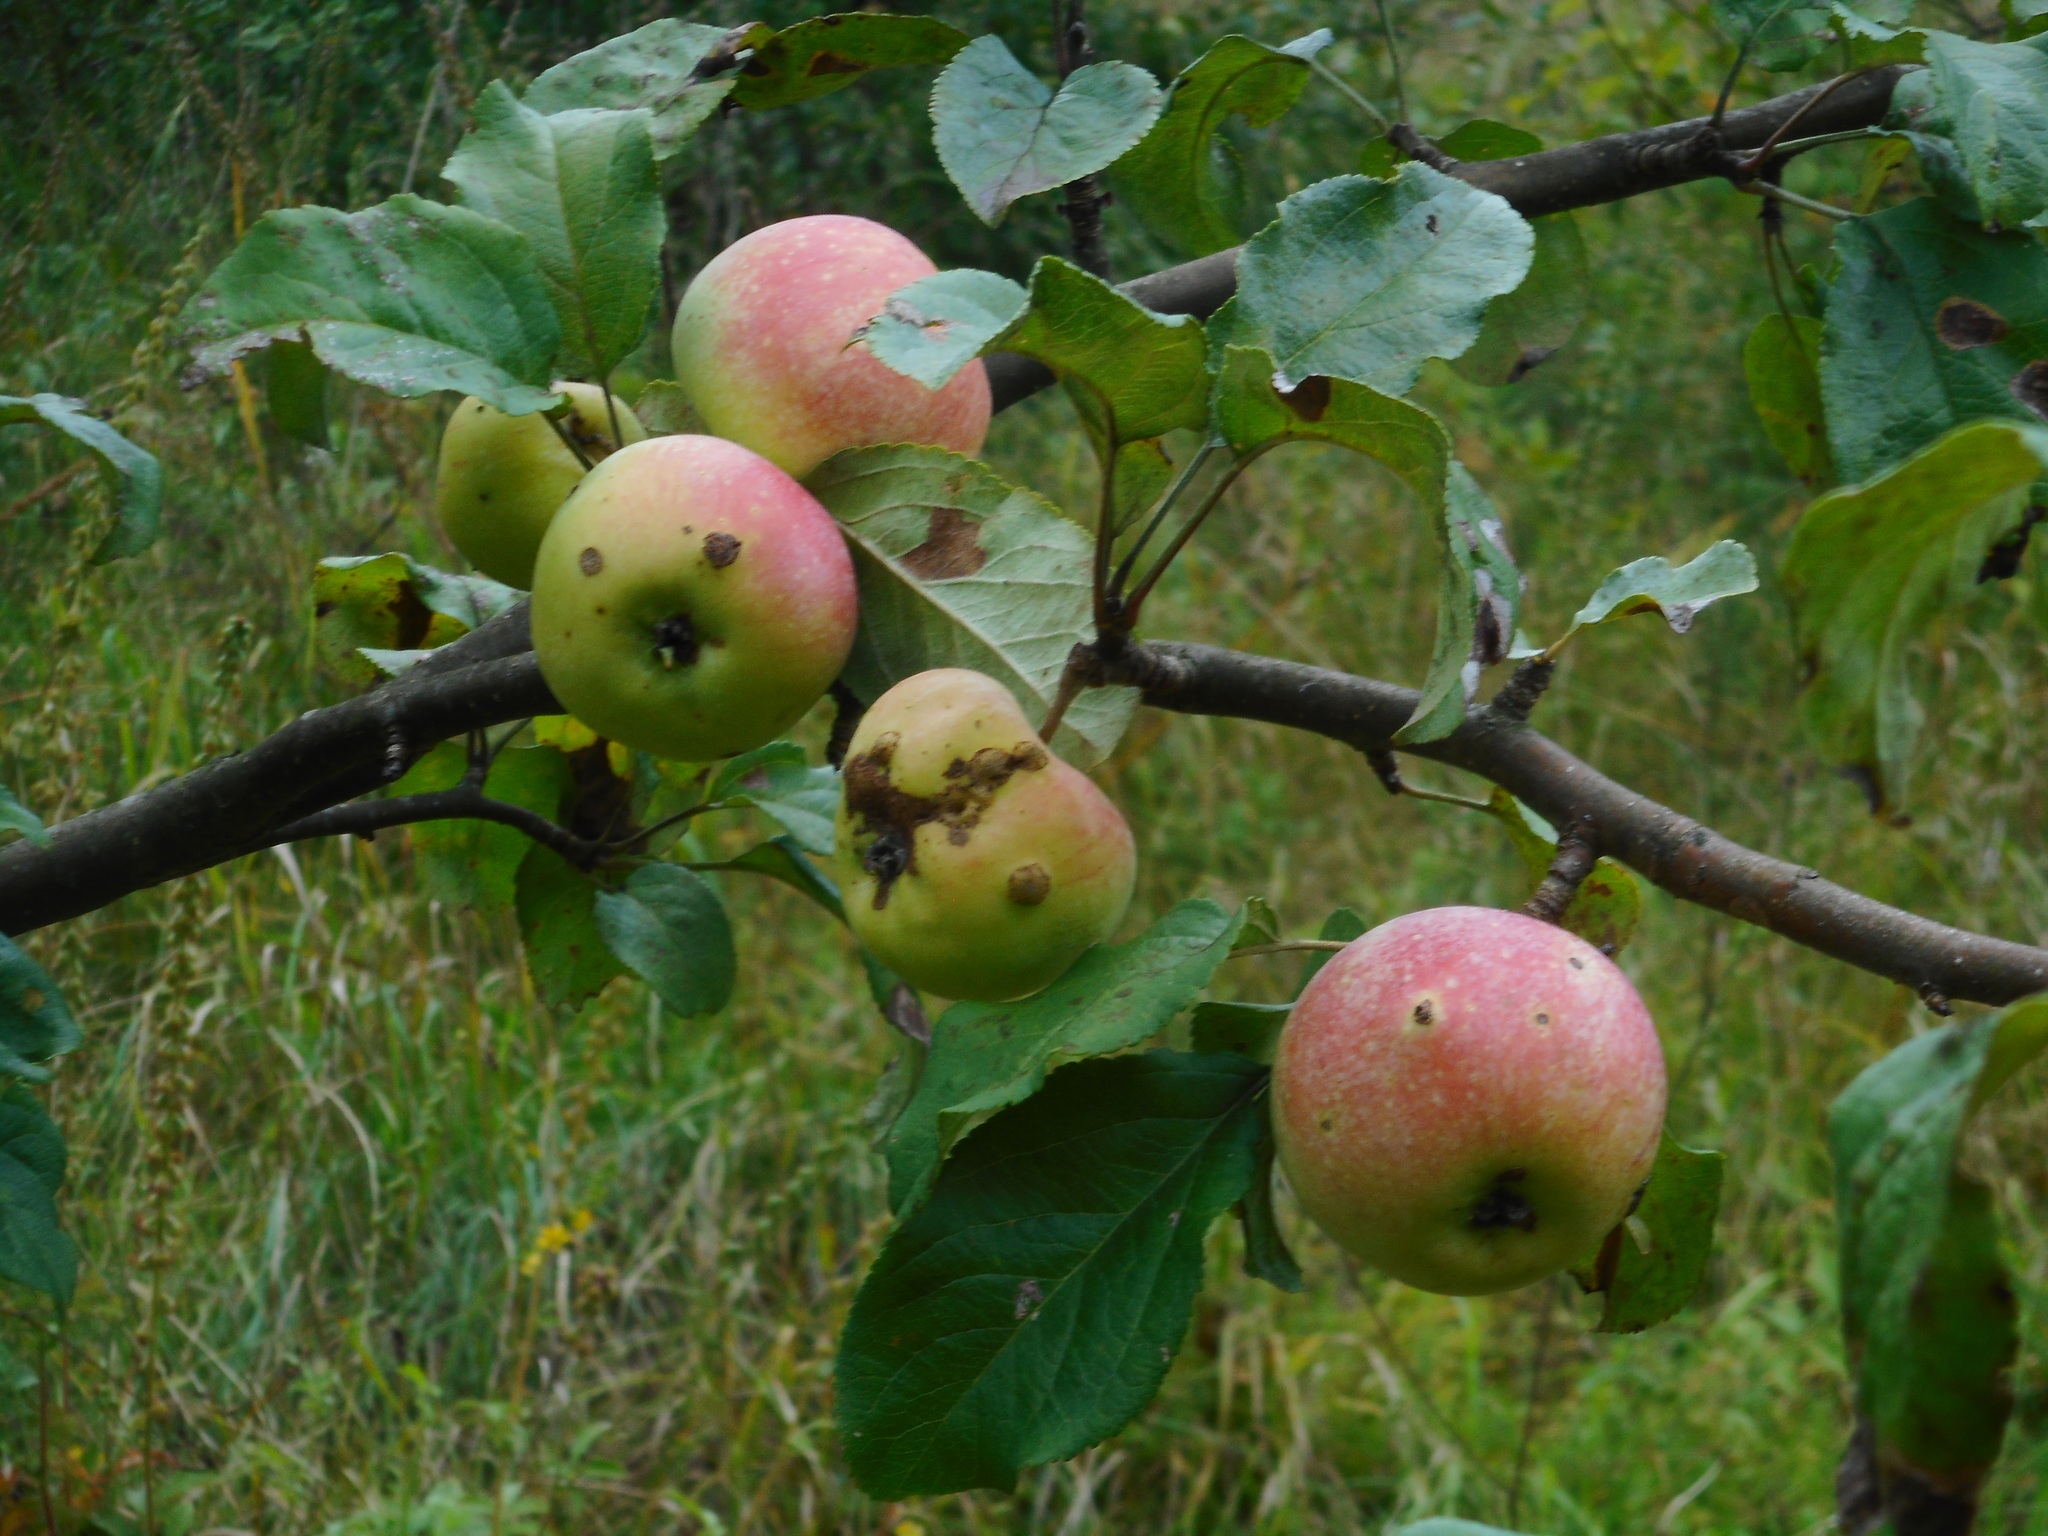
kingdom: Plantae
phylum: Tracheophyta
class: Magnoliopsida
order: Rosales
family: Rosaceae
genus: Malus
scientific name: Malus domestica
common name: Apple
